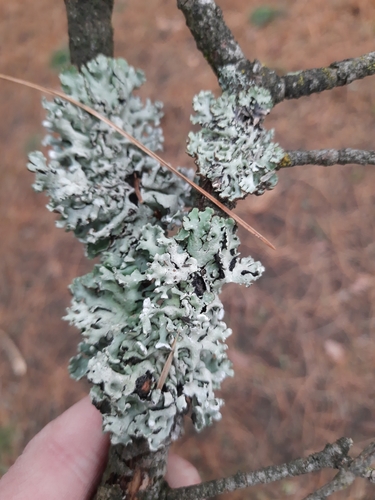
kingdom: Fungi
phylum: Ascomycota
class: Lecanoromycetes
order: Lecanorales
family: Parmeliaceae
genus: Hypogymnia
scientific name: Hypogymnia physodes
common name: Dark crottle
